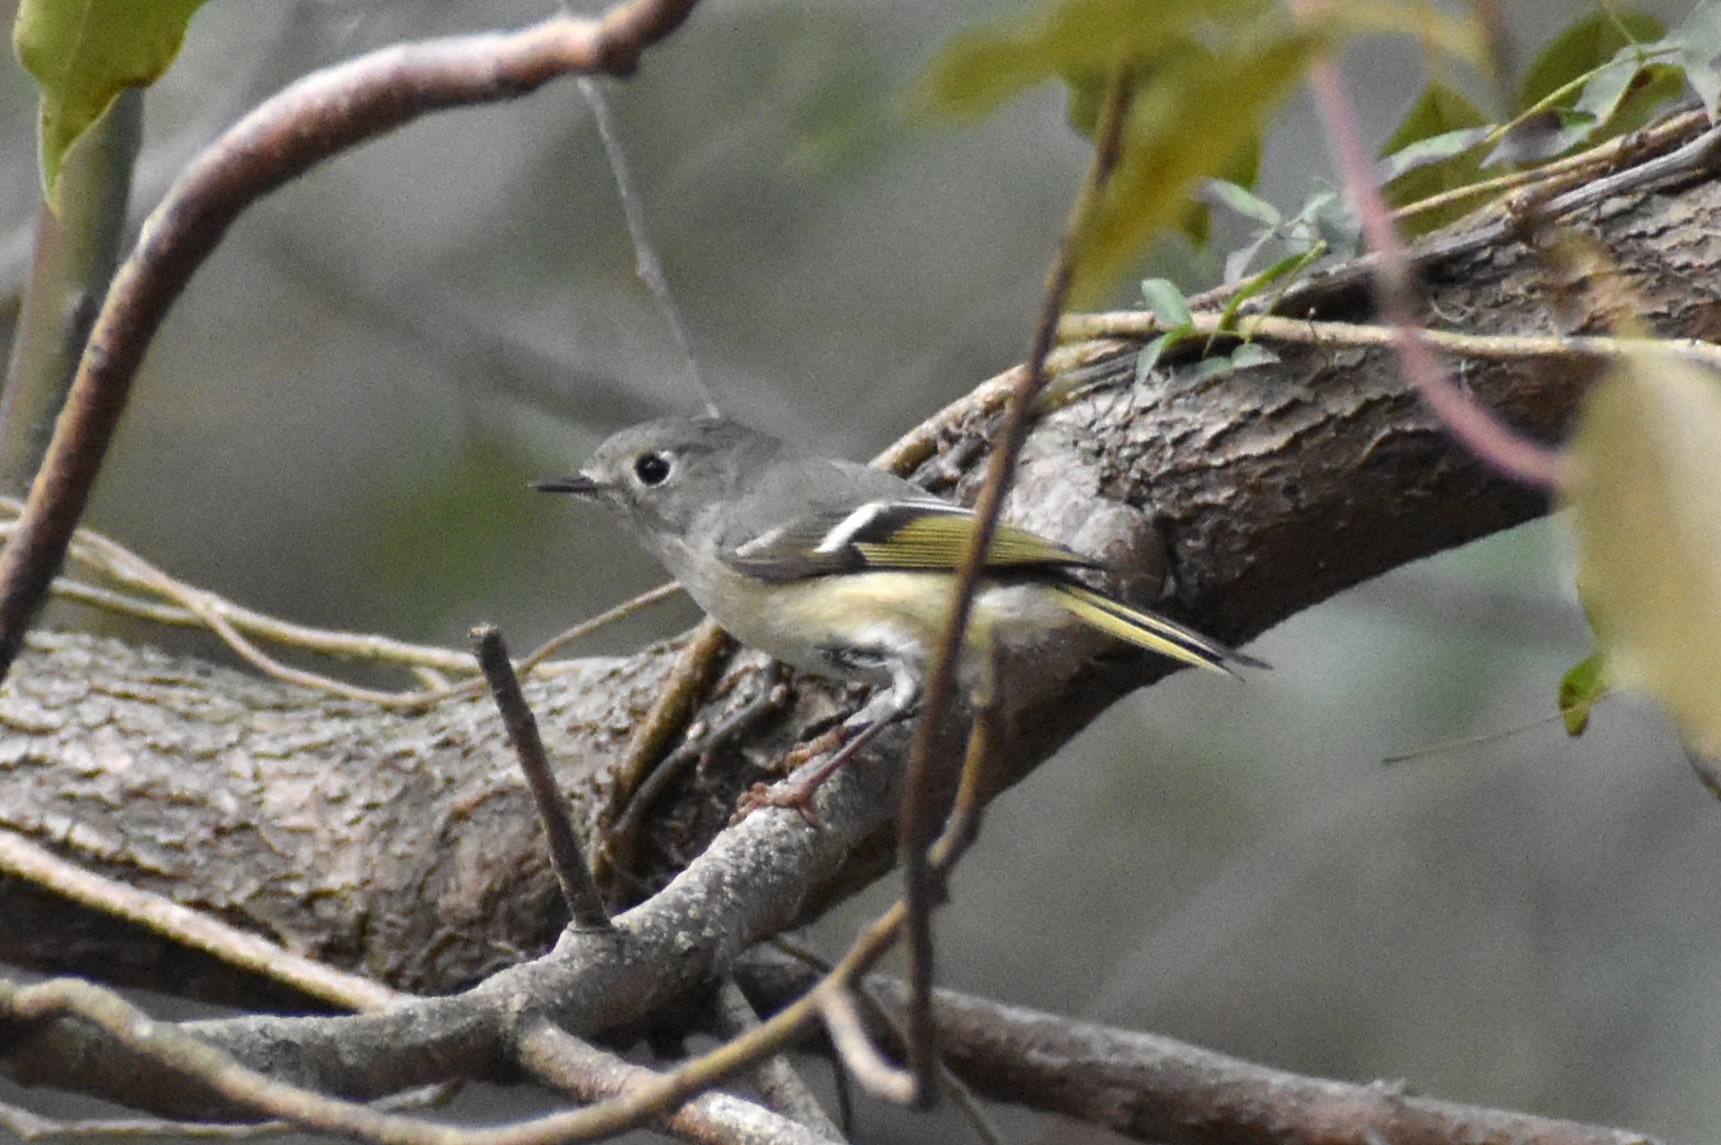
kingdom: Animalia
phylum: Chordata
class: Aves
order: Passeriformes
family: Regulidae
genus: Regulus
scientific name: Regulus calendula
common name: Ruby-crowned kinglet
